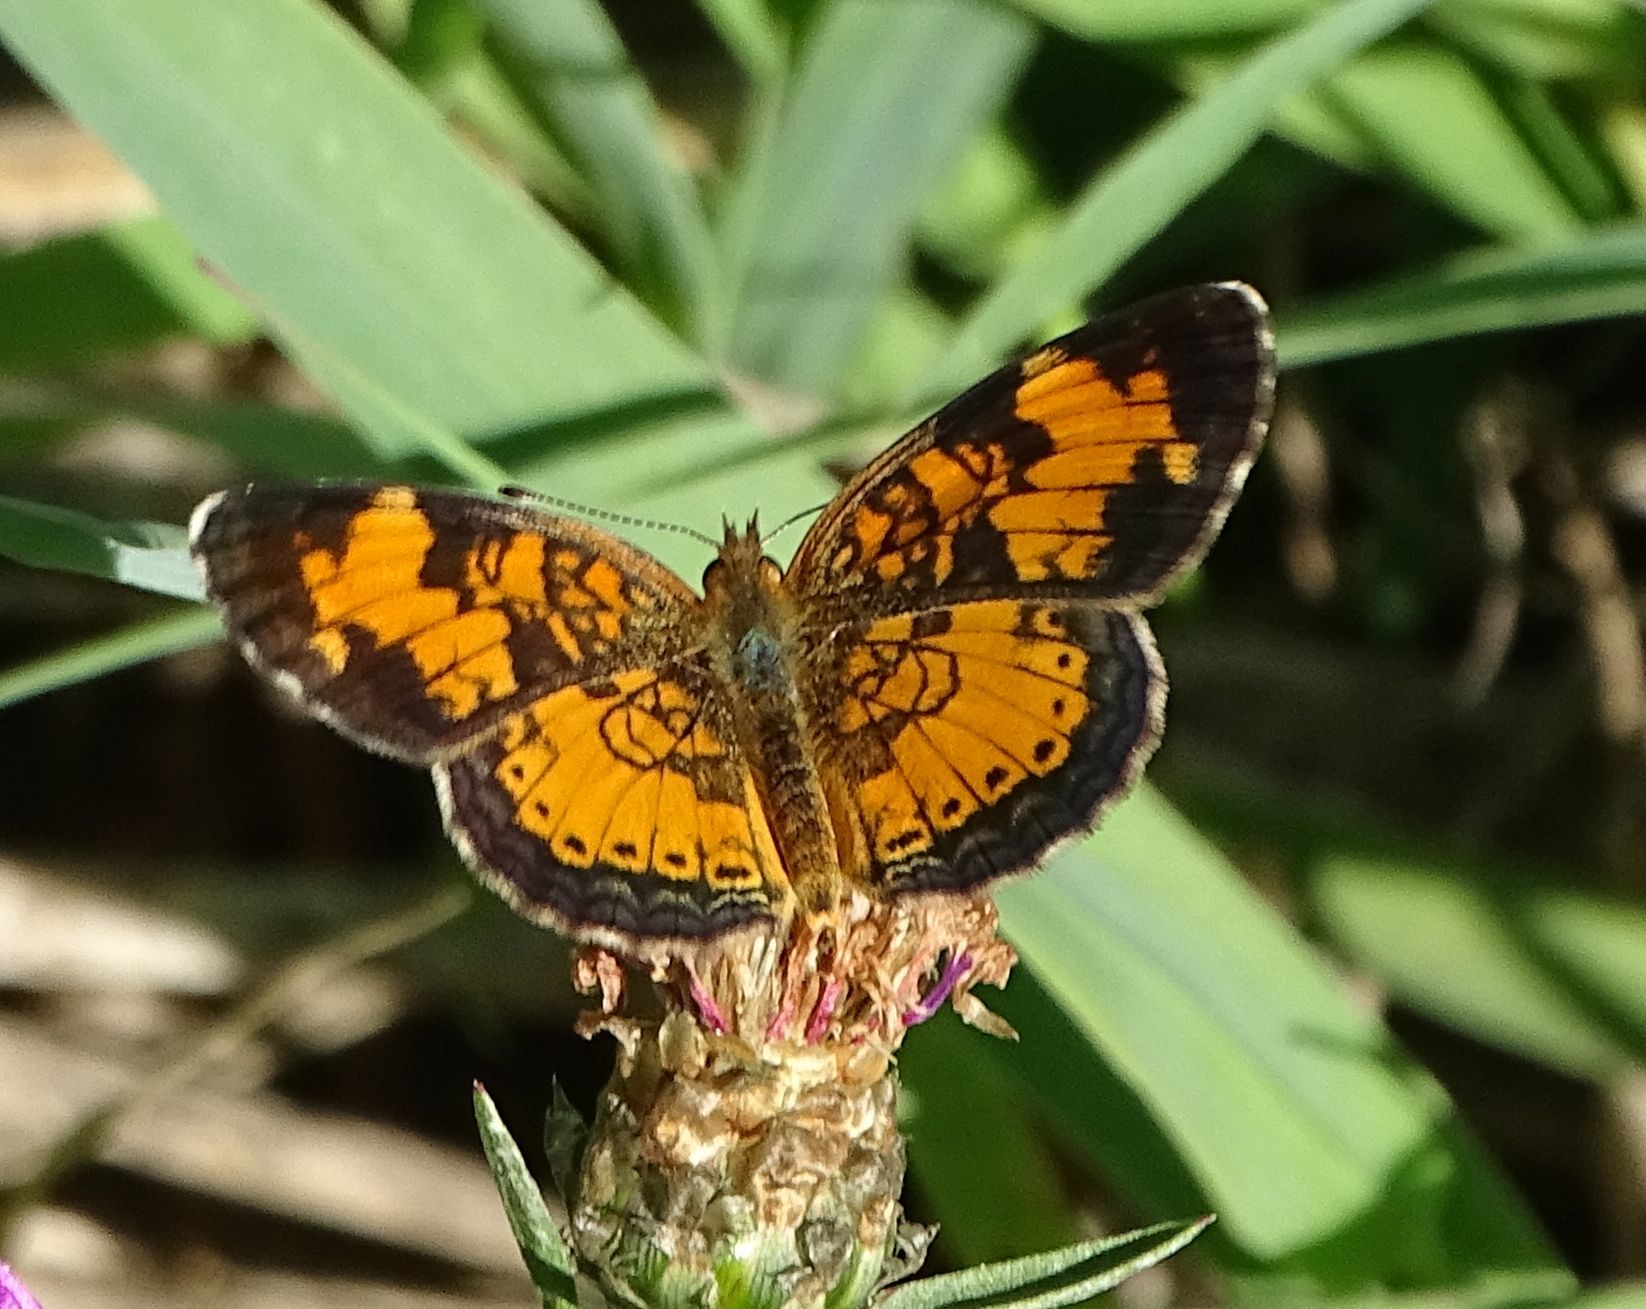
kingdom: Animalia
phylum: Arthropoda
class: Insecta
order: Lepidoptera
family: Nymphalidae
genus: Phyciodes
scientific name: Phyciodes tharos
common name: Pearl crescent
